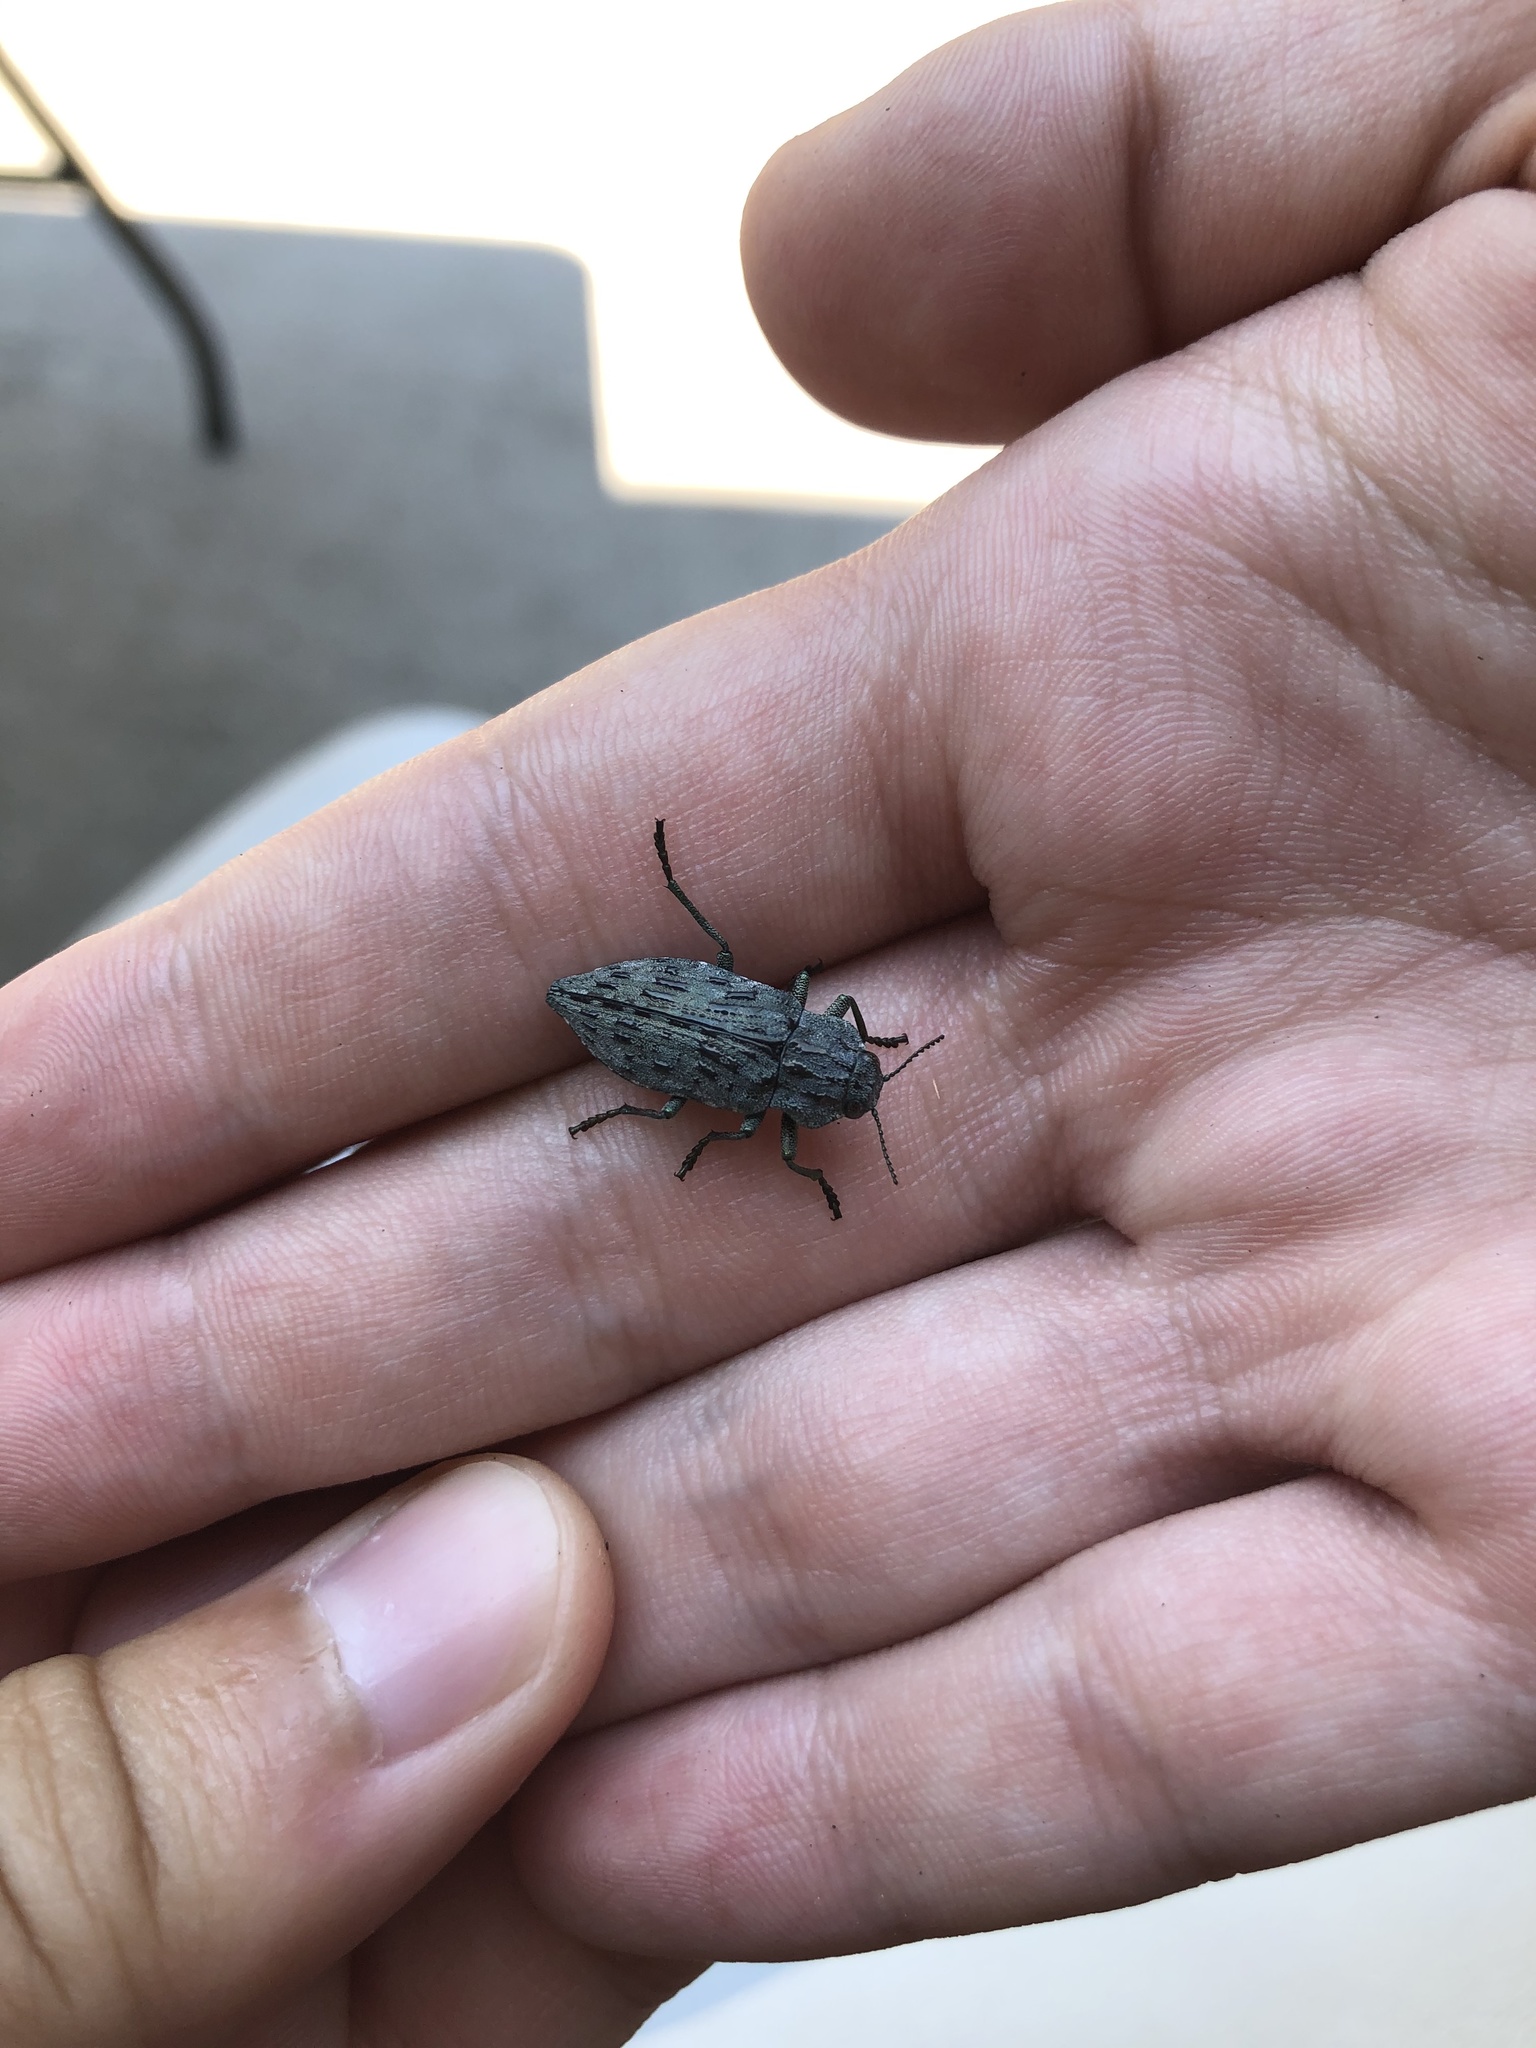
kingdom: Animalia
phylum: Arthropoda
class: Insecta
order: Coleoptera
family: Buprestidae
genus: Dicerca
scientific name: Dicerca crassicollis
